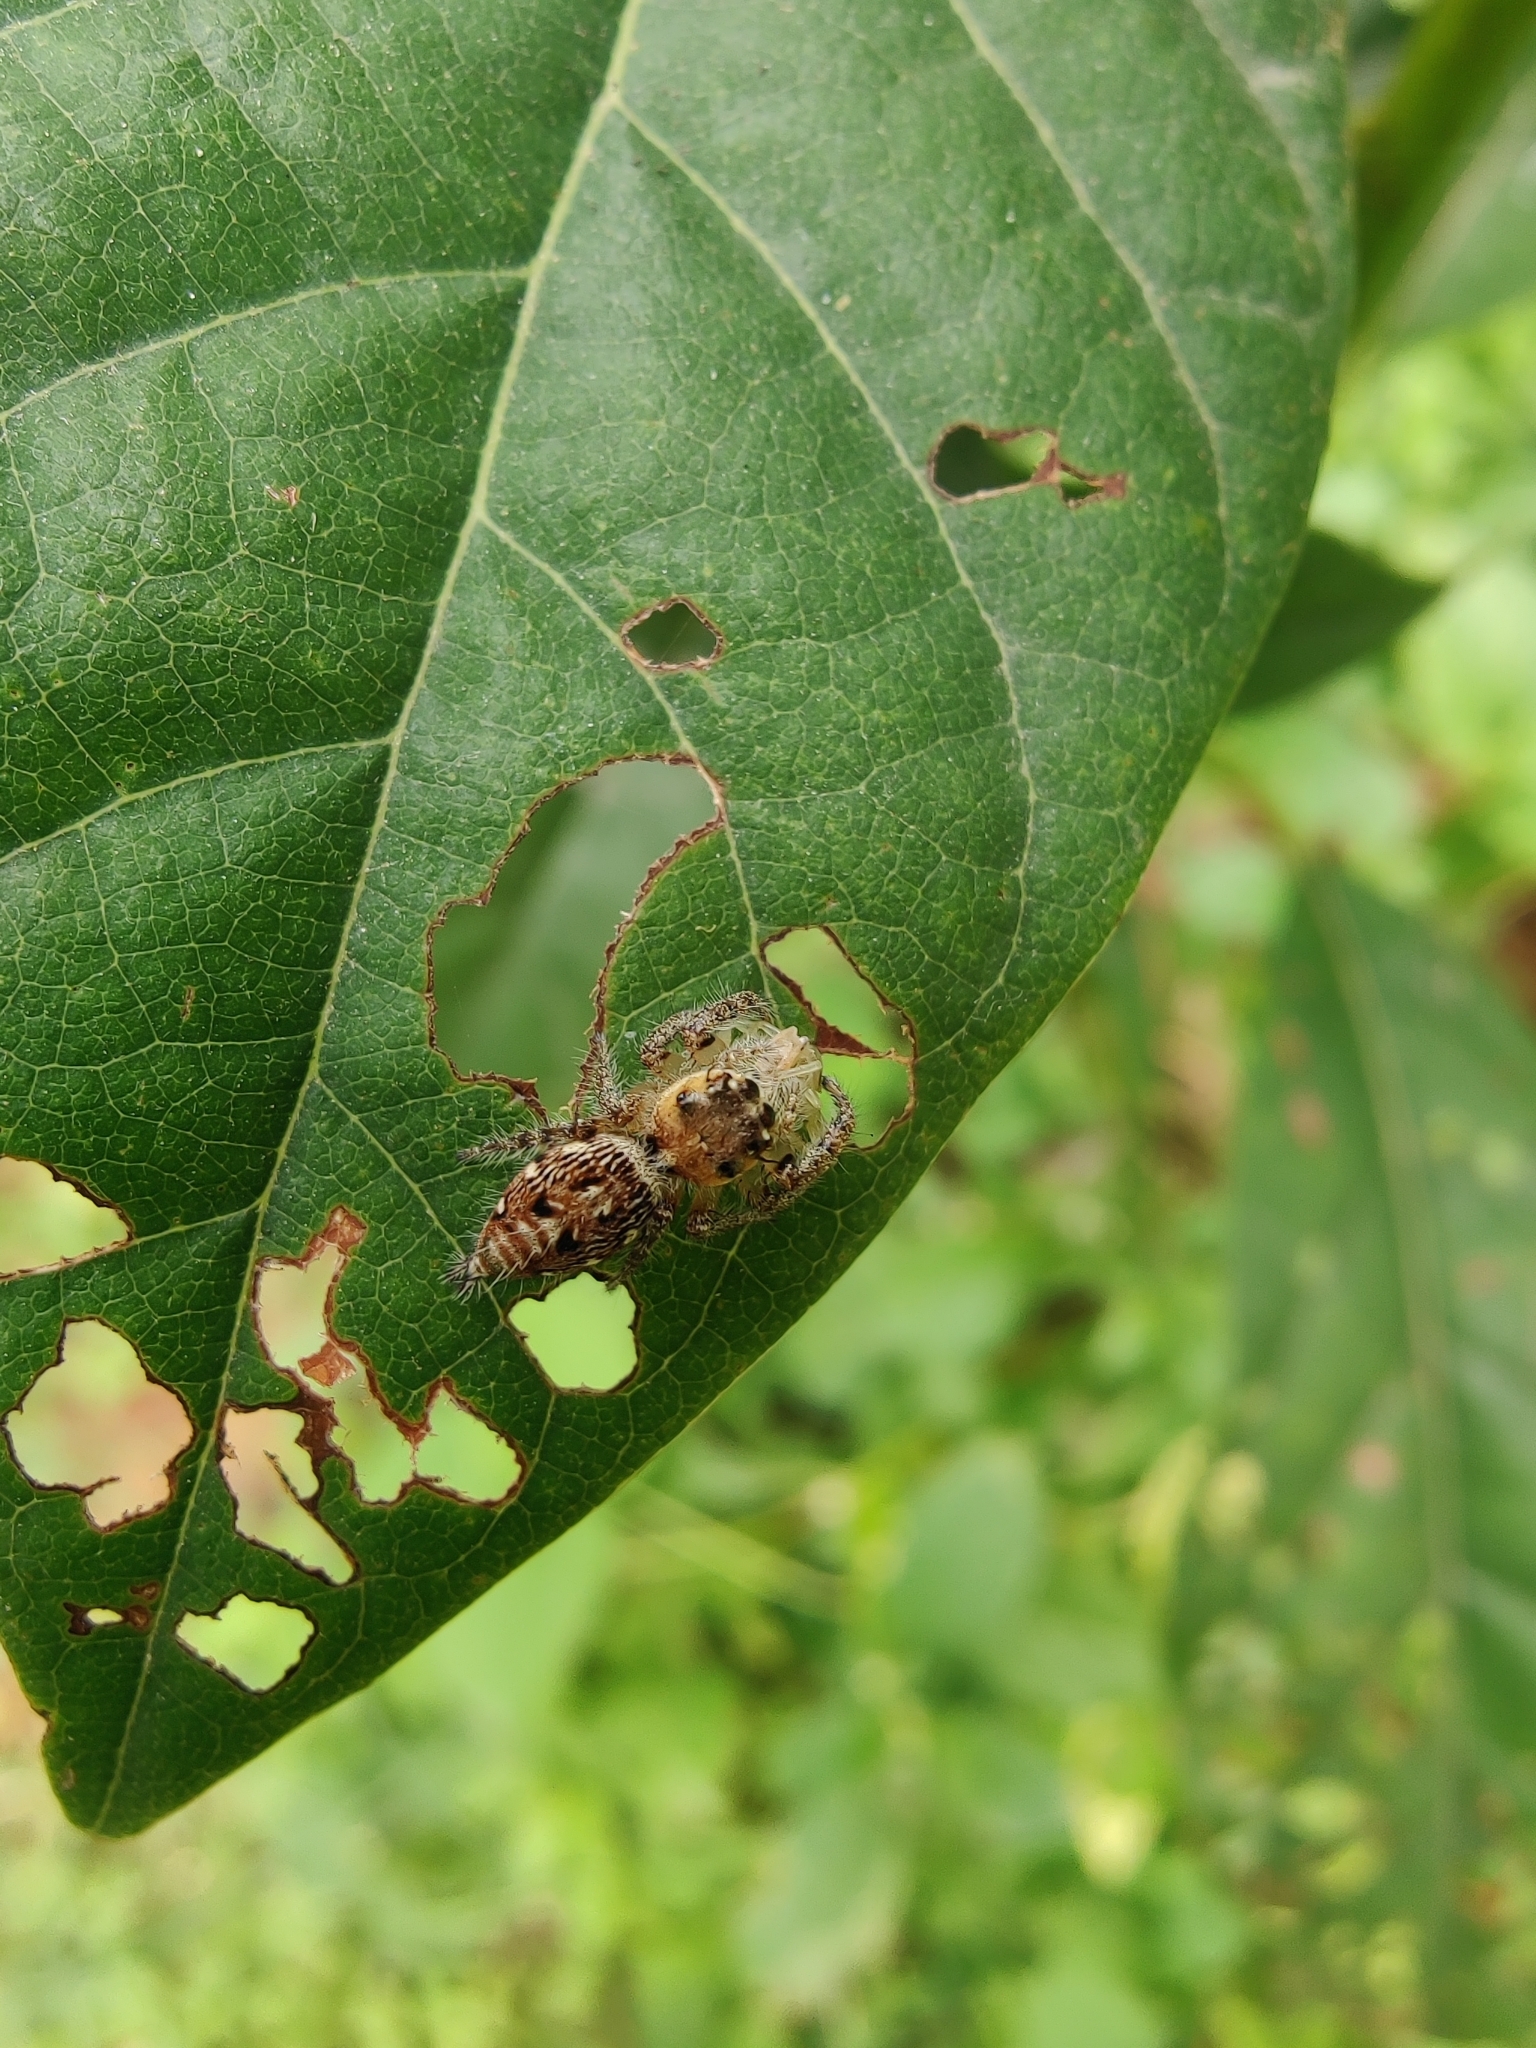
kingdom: Animalia
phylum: Arthropoda
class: Arachnida
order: Araneae
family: Salticidae
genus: Hyllus
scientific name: Hyllus semicupreus
